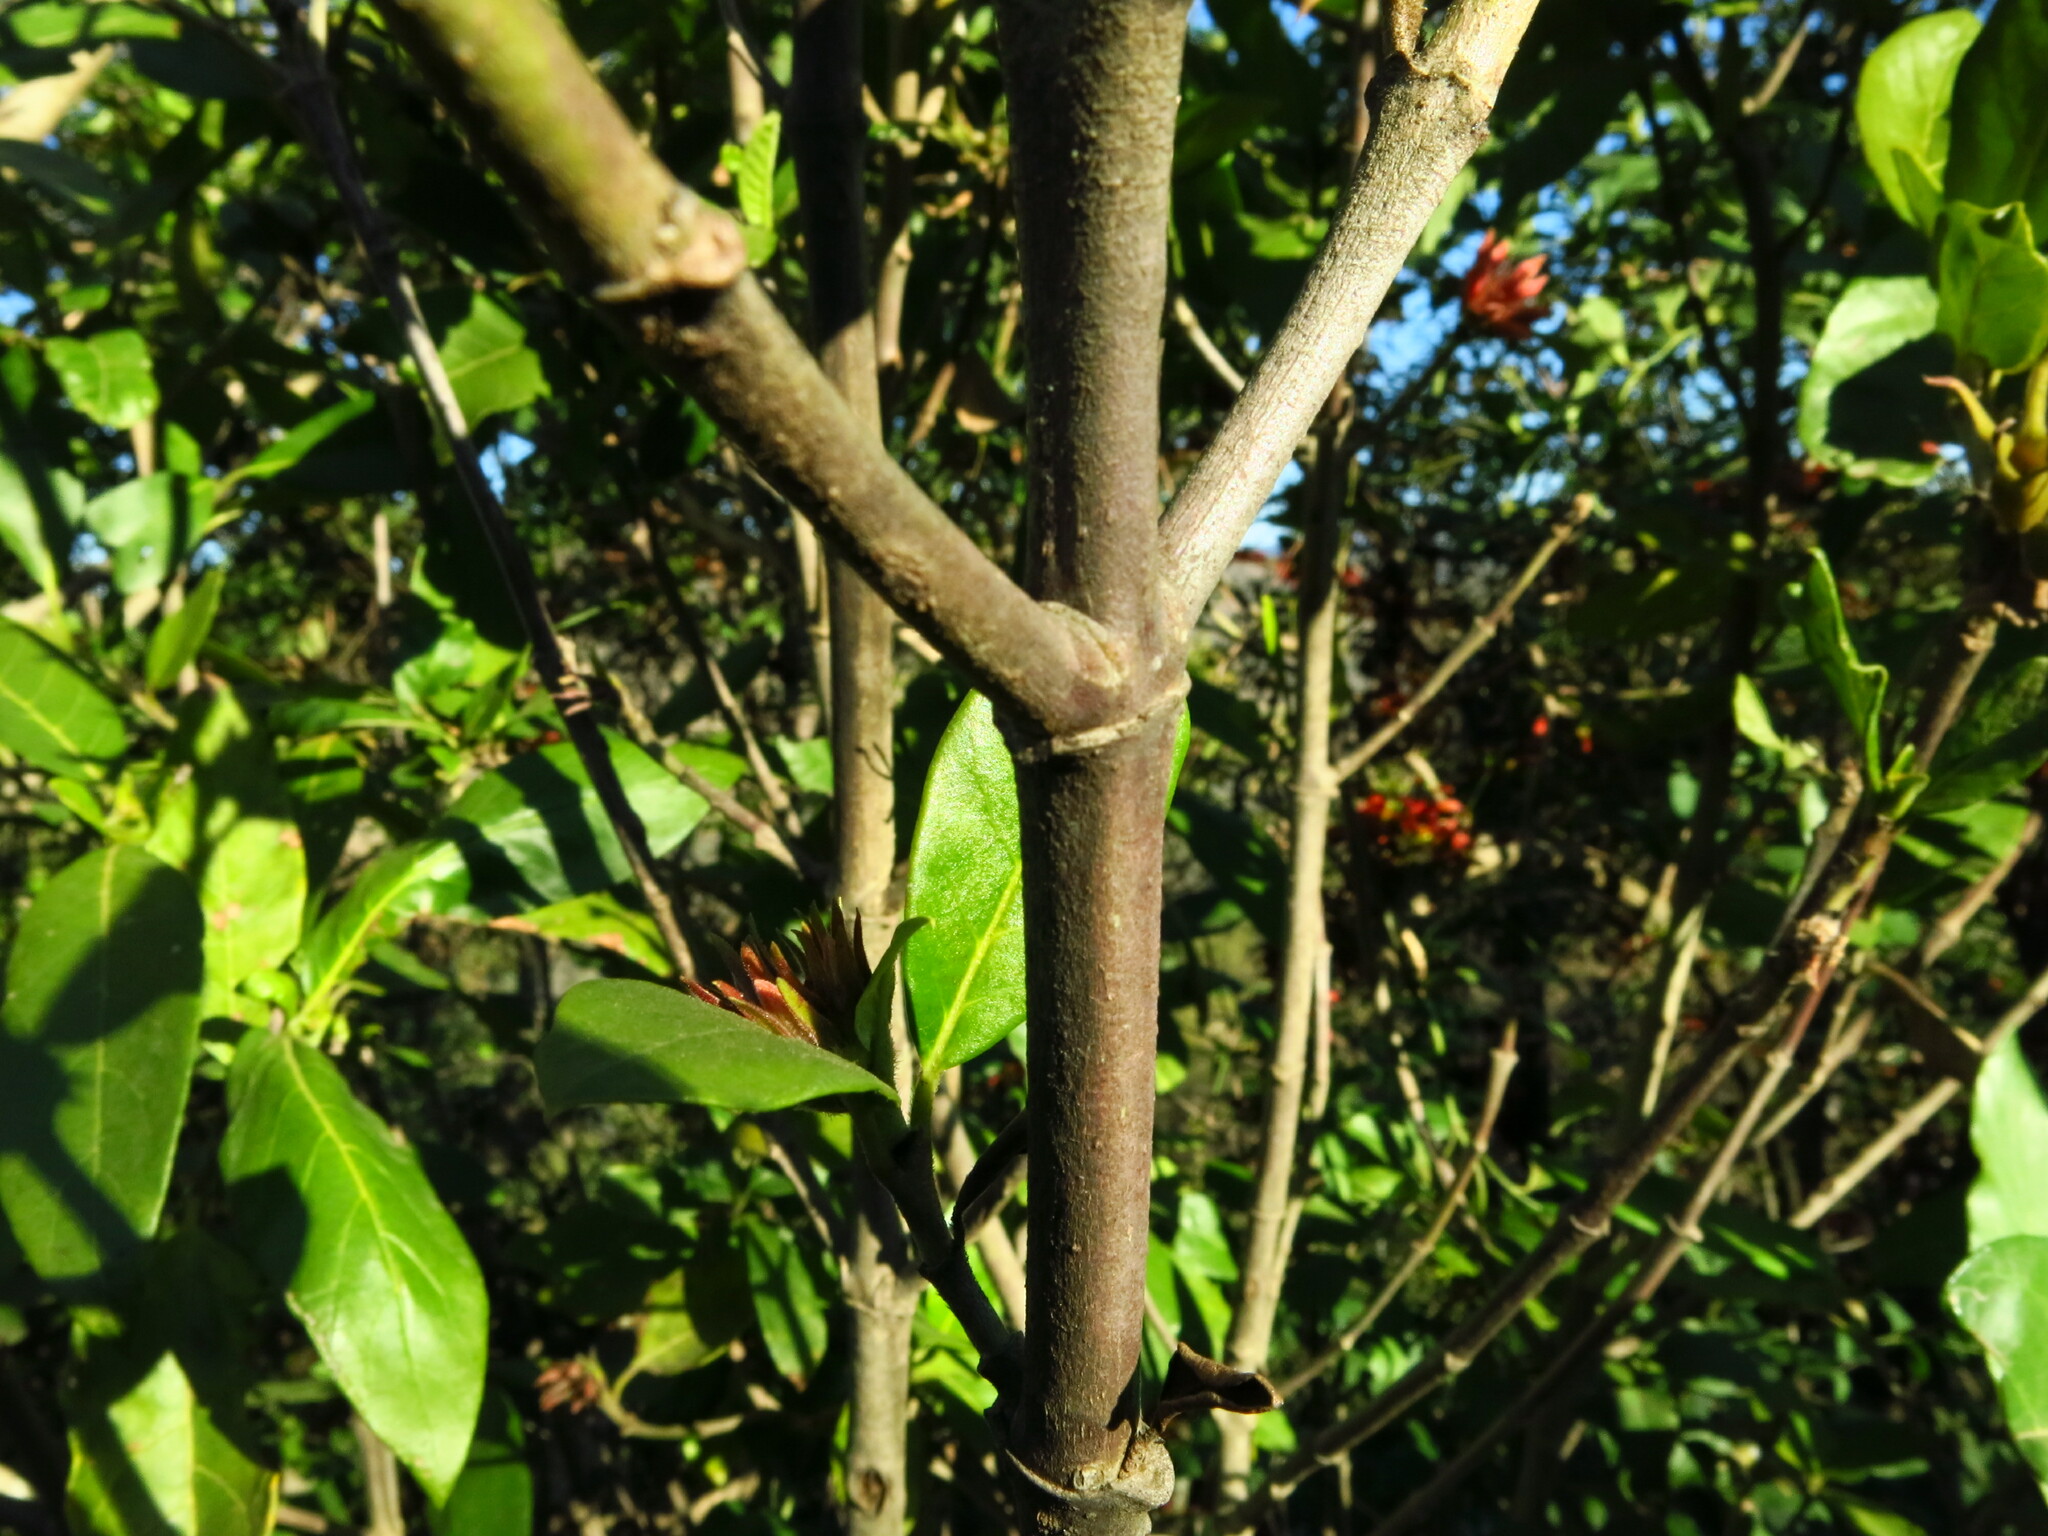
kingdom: Plantae
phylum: Tracheophyta
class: Magnoliopsida
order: Gentianales
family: Rubiaceae
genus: Burchellia
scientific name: Burchellia bubalina
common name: Wild pomegranate
